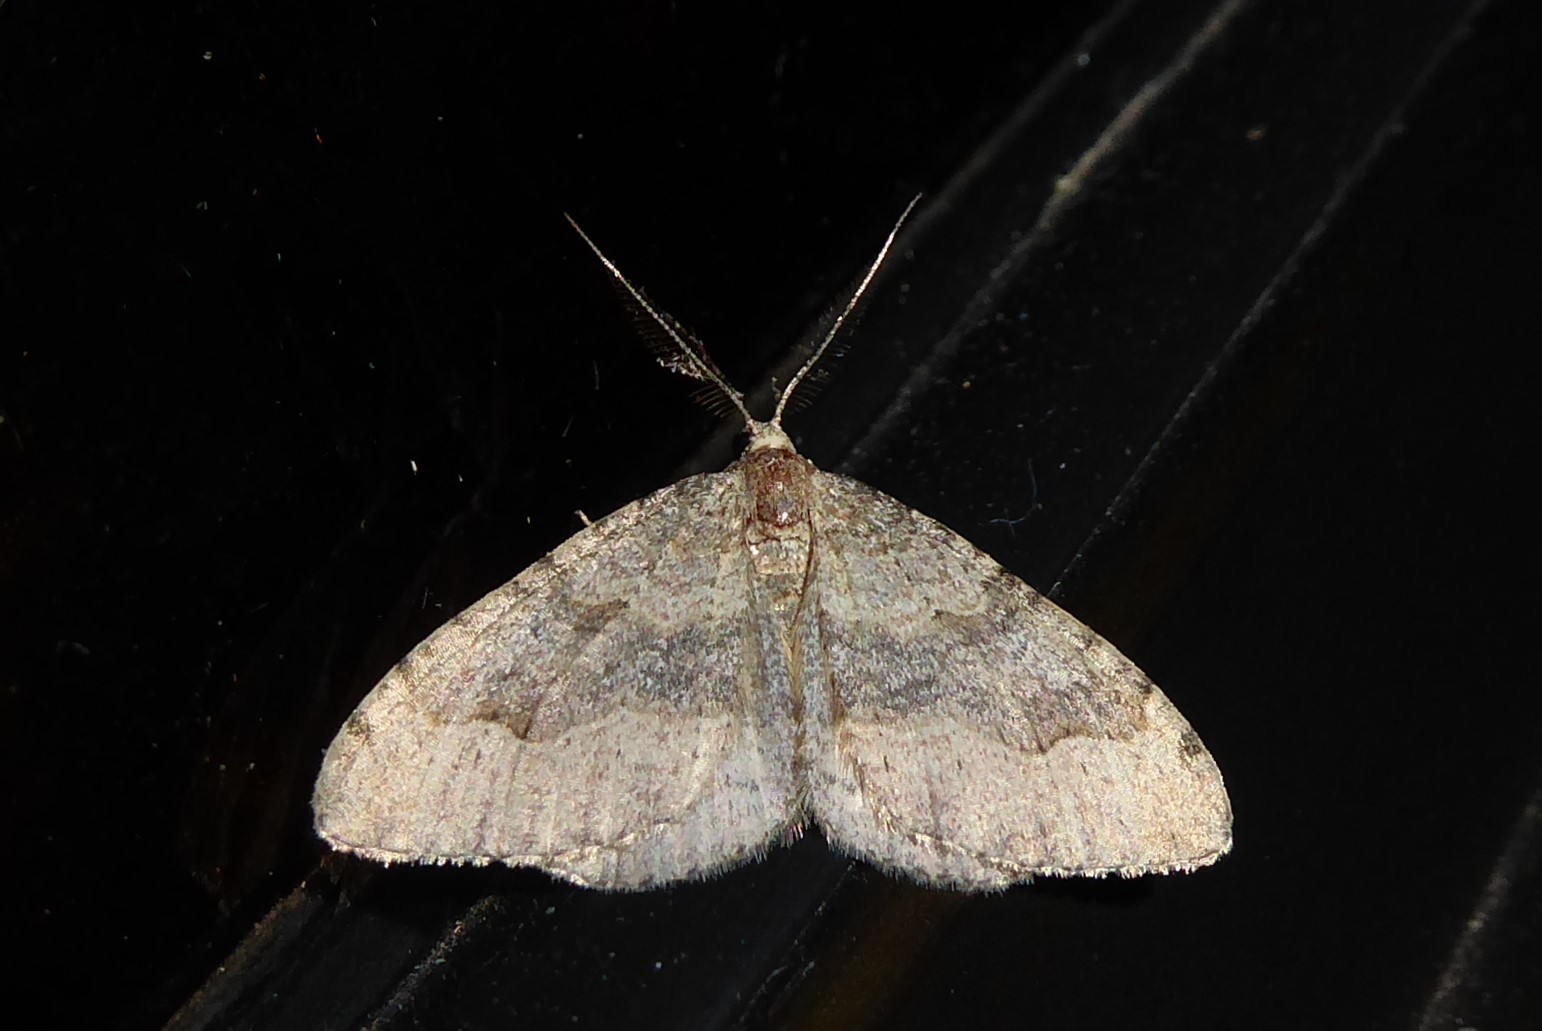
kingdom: Animalia
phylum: Arthropoda
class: Insecta
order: Lepidoptera
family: Geometridae
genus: Epyaxa
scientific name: Epyaxa rosearia
